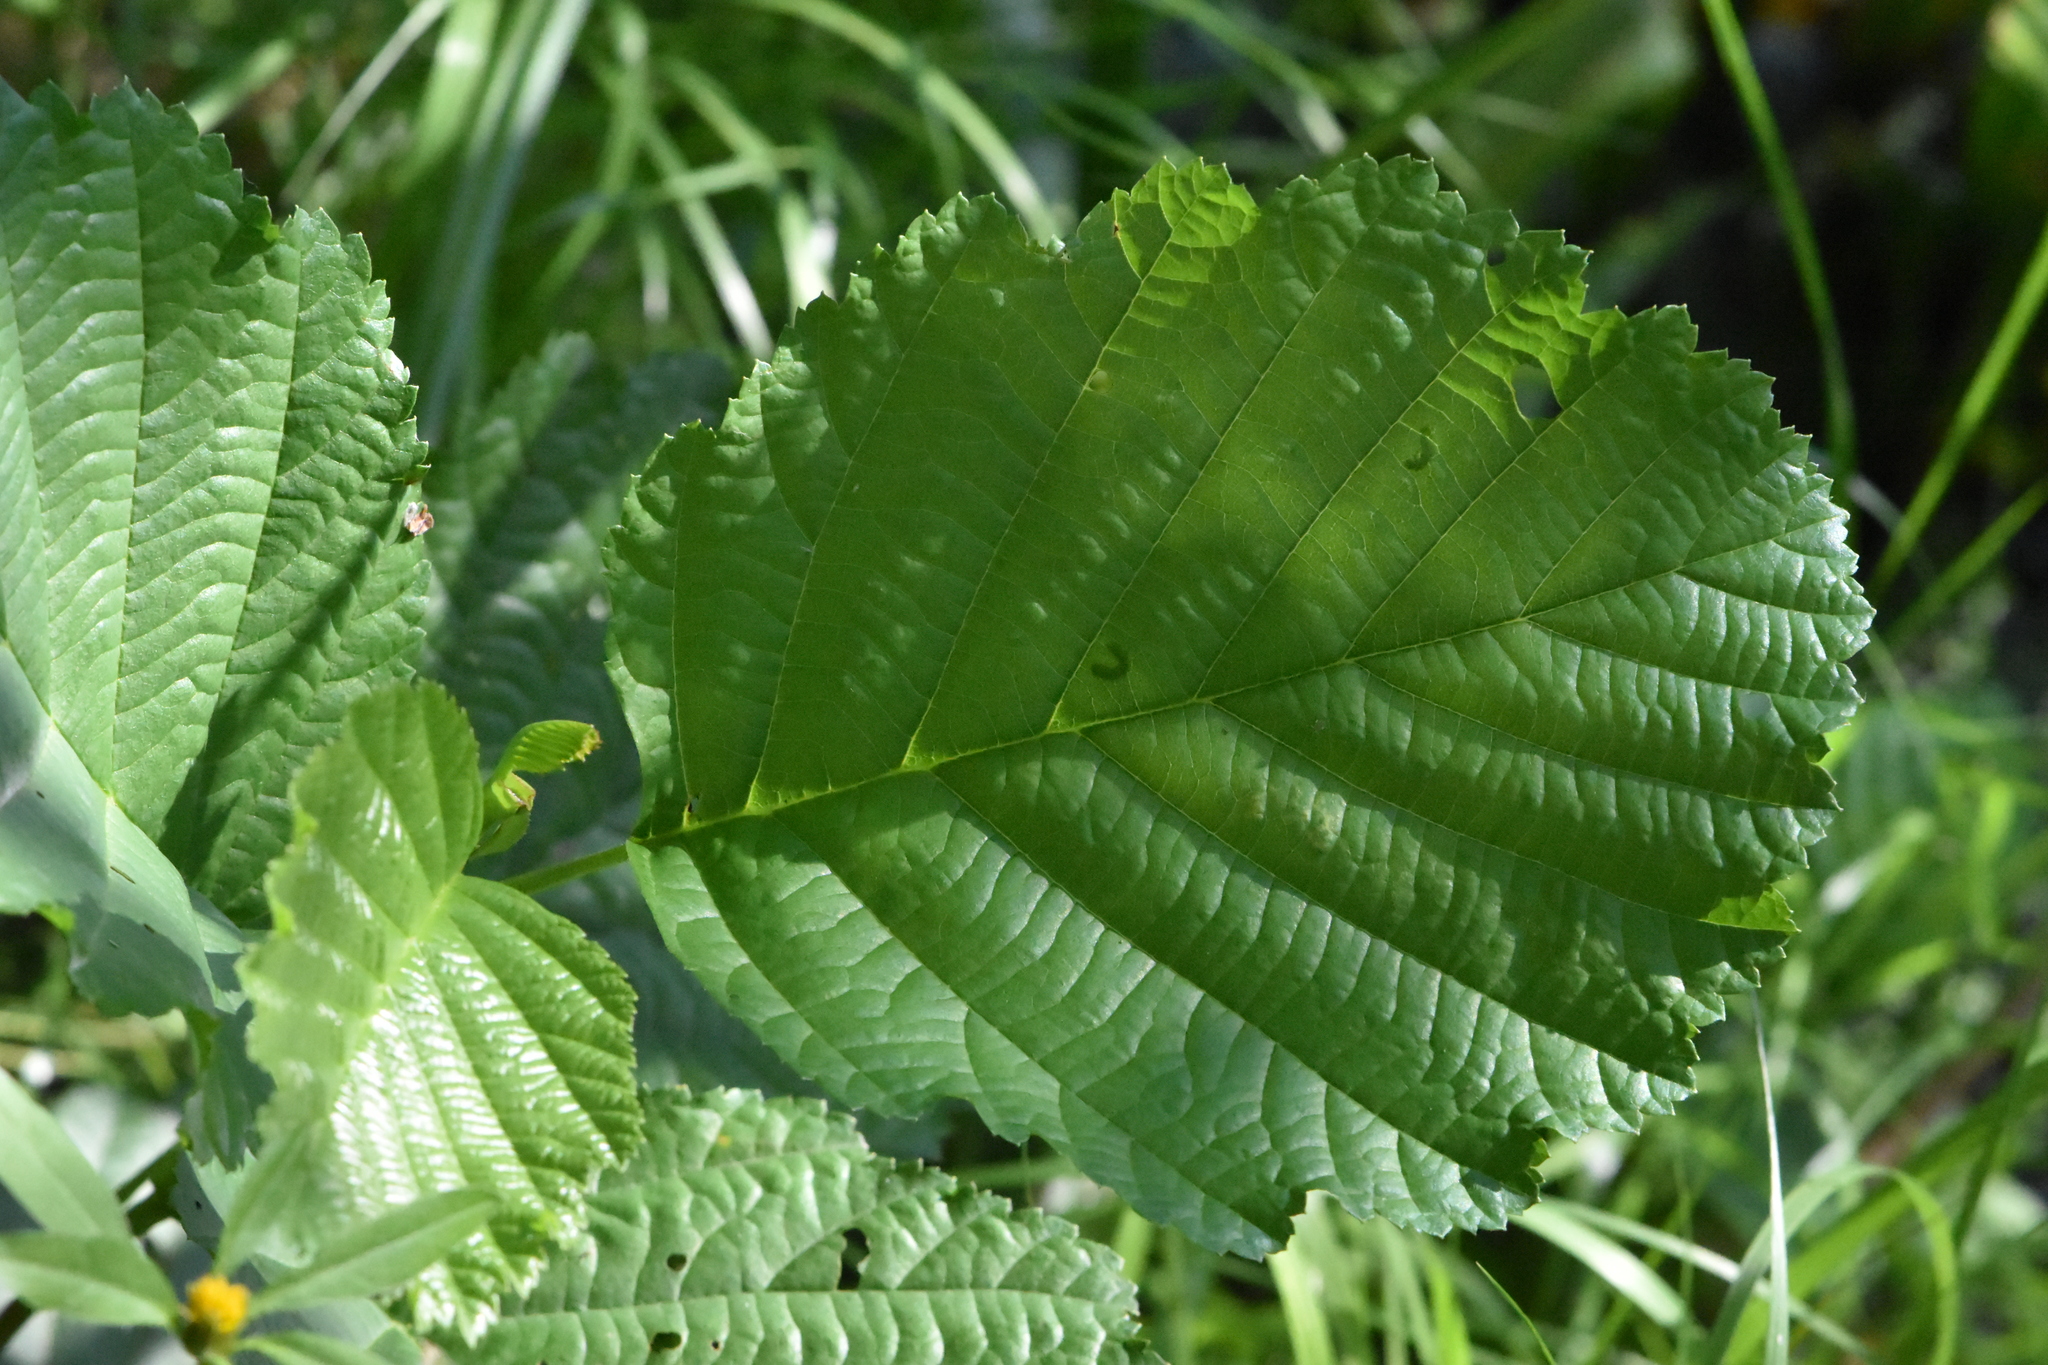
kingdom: Plantae
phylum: Tracheophyta
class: Magnoliopsida
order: Fagales
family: Betulaceae
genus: Alnus
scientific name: Alnus glutinosa
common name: Black alder
